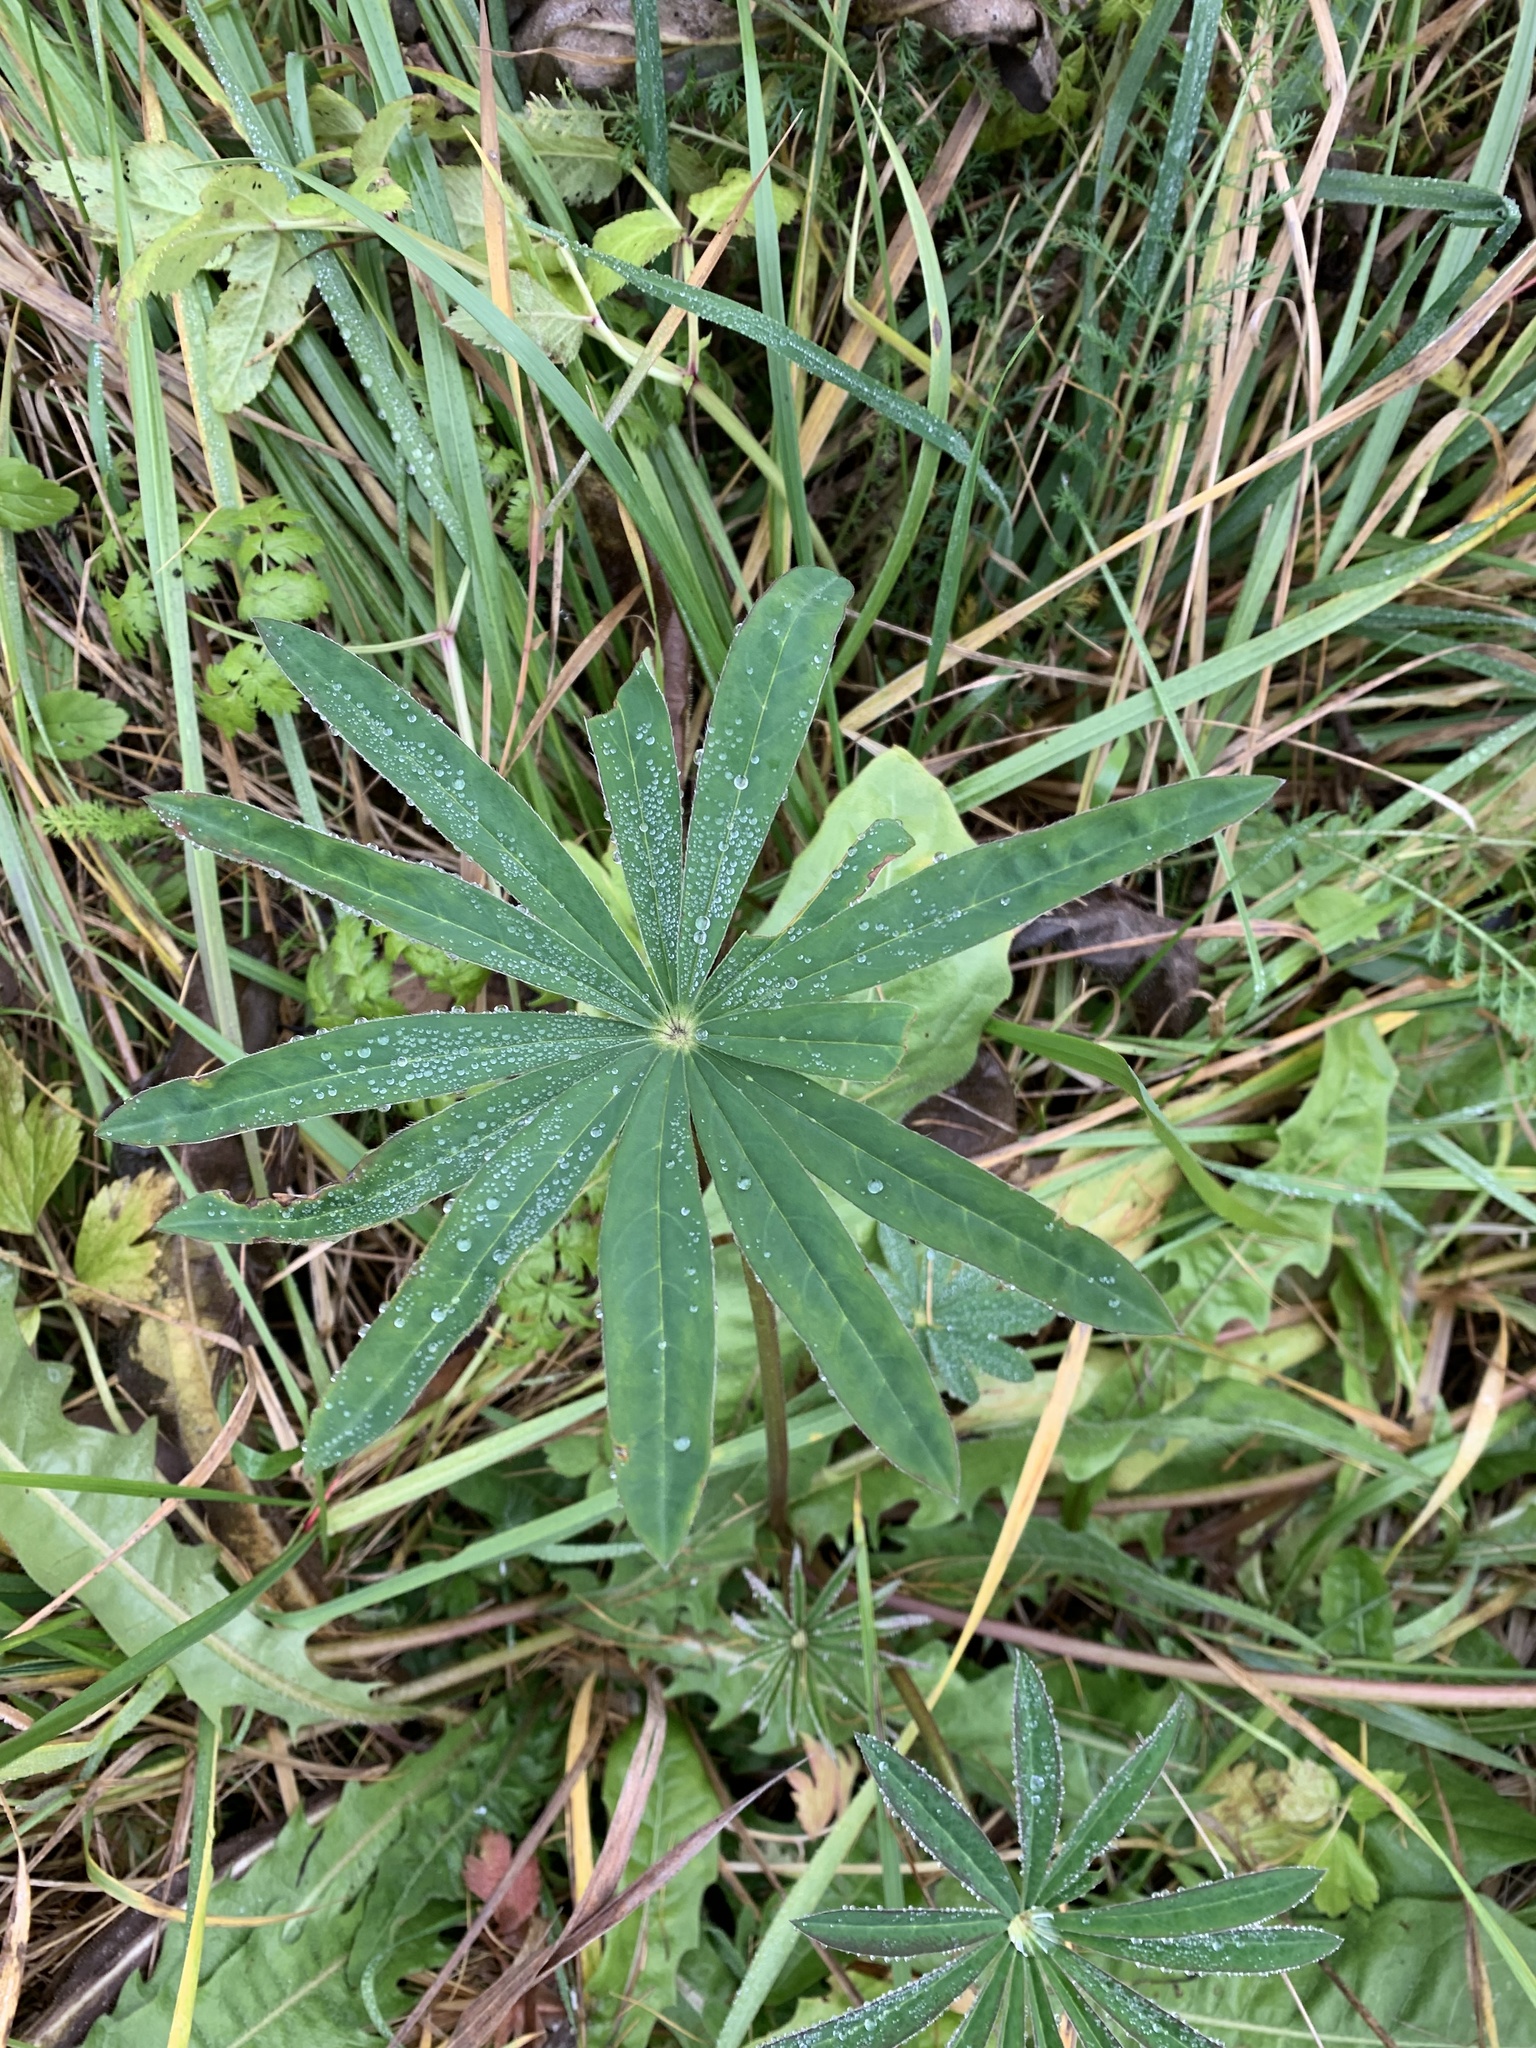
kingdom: Plantae
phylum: Tracheophyta
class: Magnoliopsida
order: Fabales
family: Fabaceae
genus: Lupinus
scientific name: Lupinus polyphyllus
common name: Garden lupin
